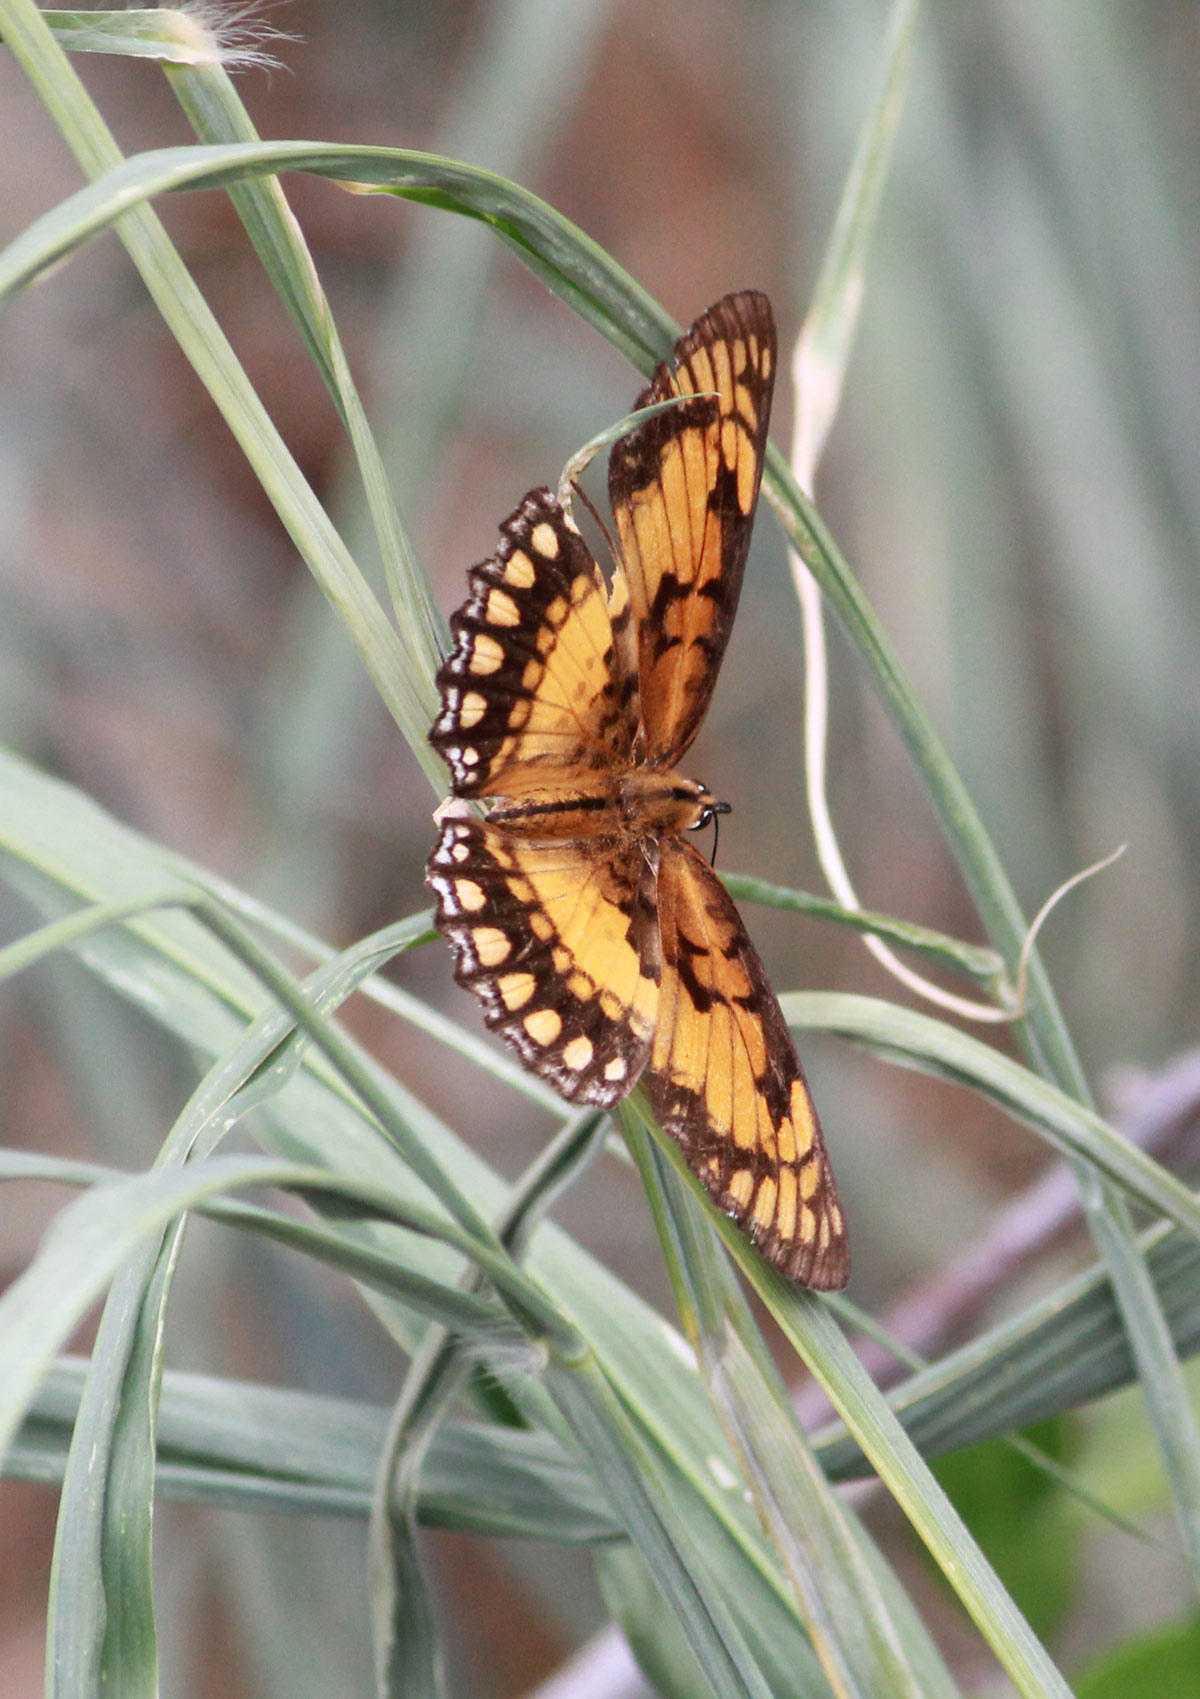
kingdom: Animalia
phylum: Arthropoda
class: Insecta
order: Lepidoptera
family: Nymphalidae
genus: Byblia
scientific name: Byblia acheloia
